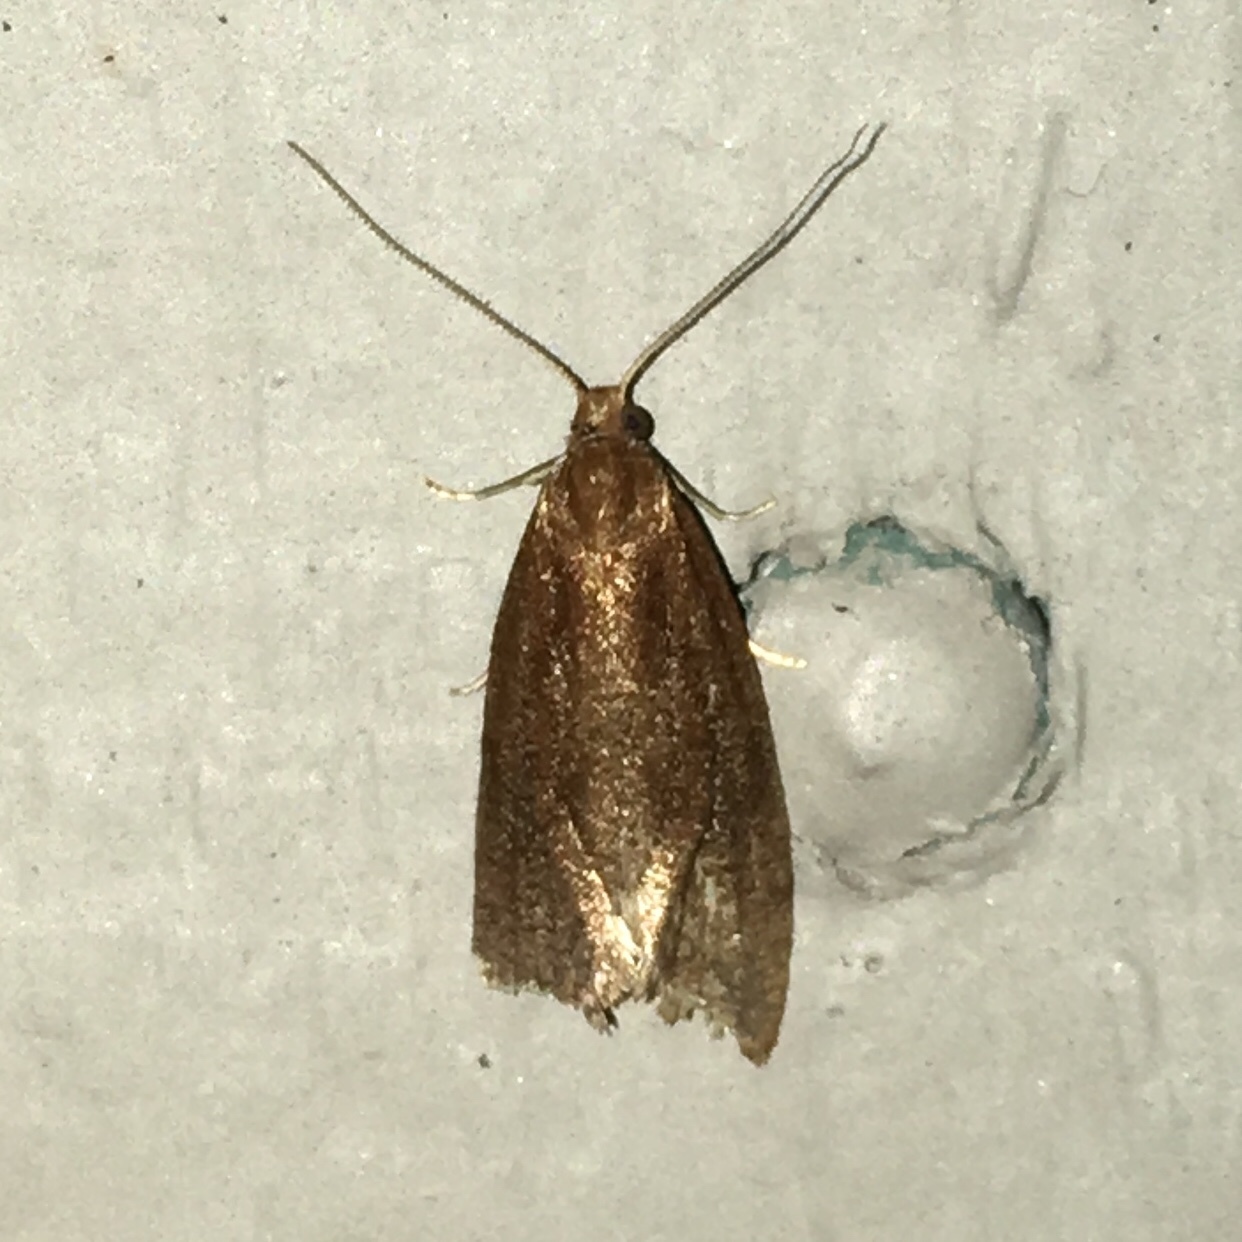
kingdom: Animalia
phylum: Arthropoda
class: Insecta
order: Lepidoptera
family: Tortricidae
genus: Aethes
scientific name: Aethes biscana
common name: Reddish aethes
